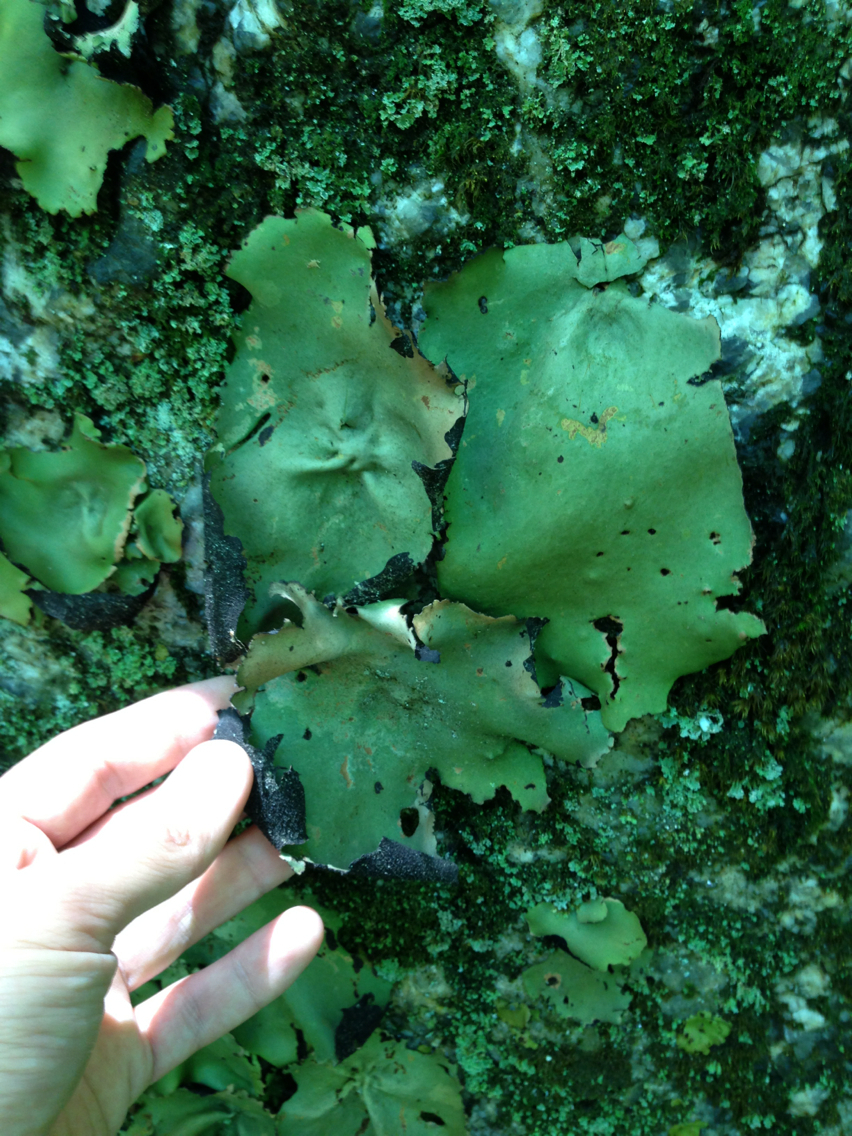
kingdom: Fungi
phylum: Ascomycota
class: Lecanoromycetes
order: Umbilicariales
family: Umbilicariaceae
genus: Umbilicaria
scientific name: Umbilicaria mammulata
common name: Smooth rock tripe
